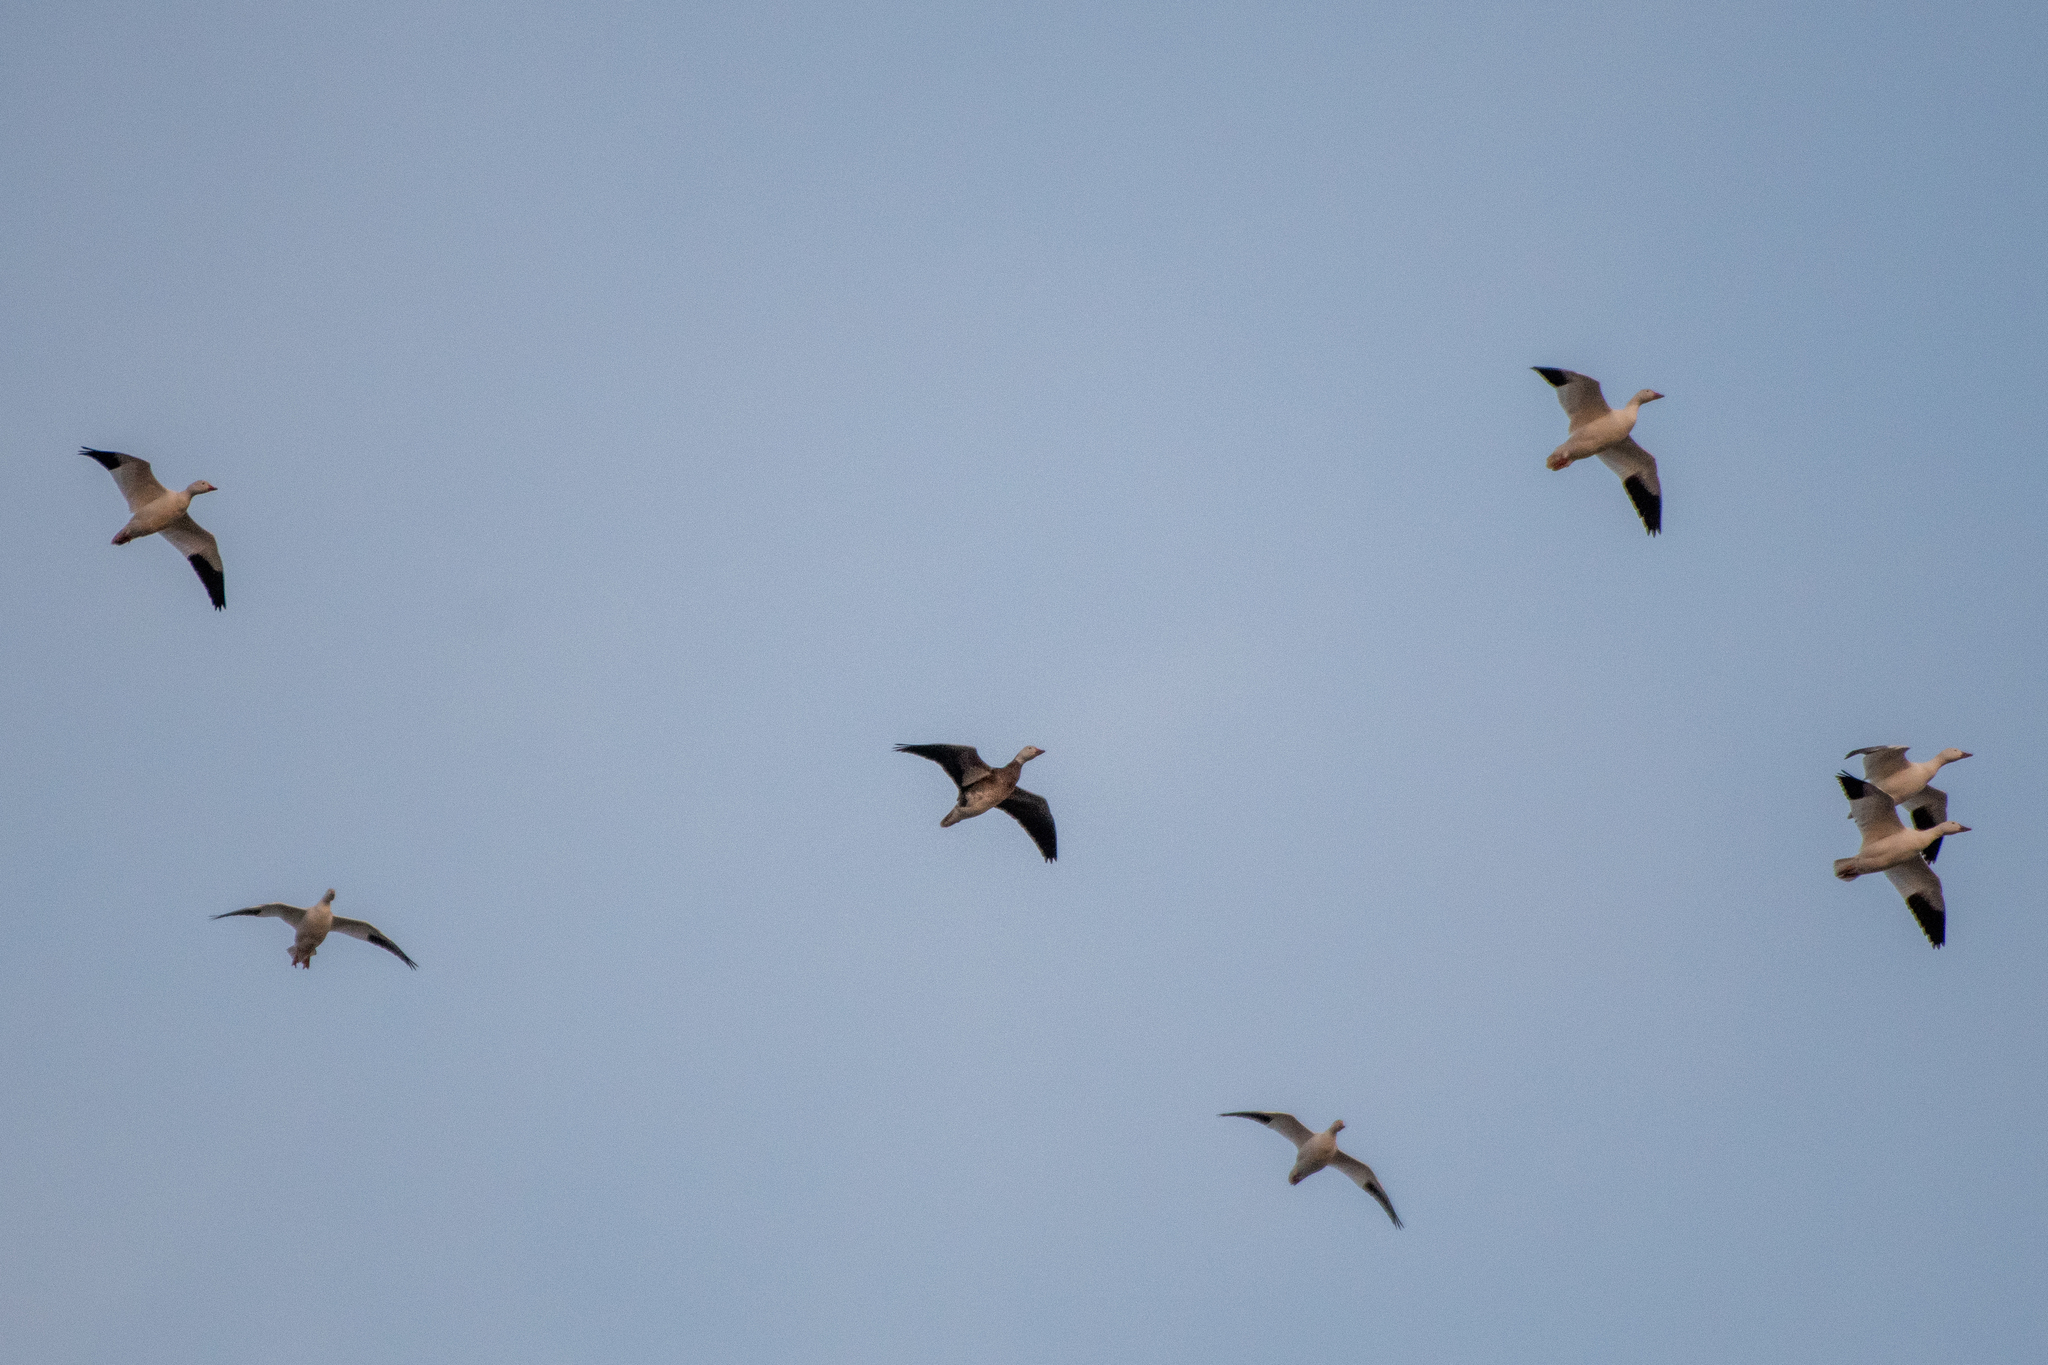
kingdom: Animalia
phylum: Chordata
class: Aves
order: Anseriformes
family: Anatidae
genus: Anser
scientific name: Anser caerulescens
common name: Snow goose
